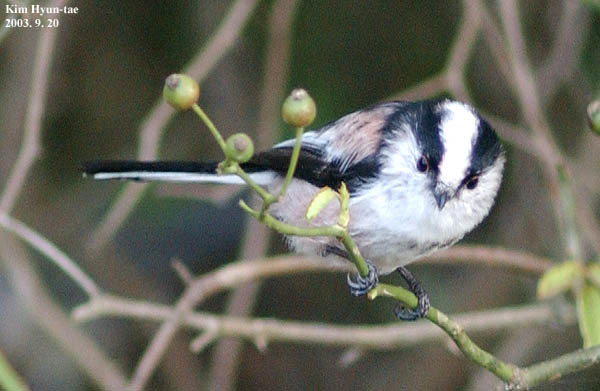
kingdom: Animalia
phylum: Chordata
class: Aves
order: Passeriformes
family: Aegithalidae
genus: Aegithalos
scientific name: Aegithalos caudatus
